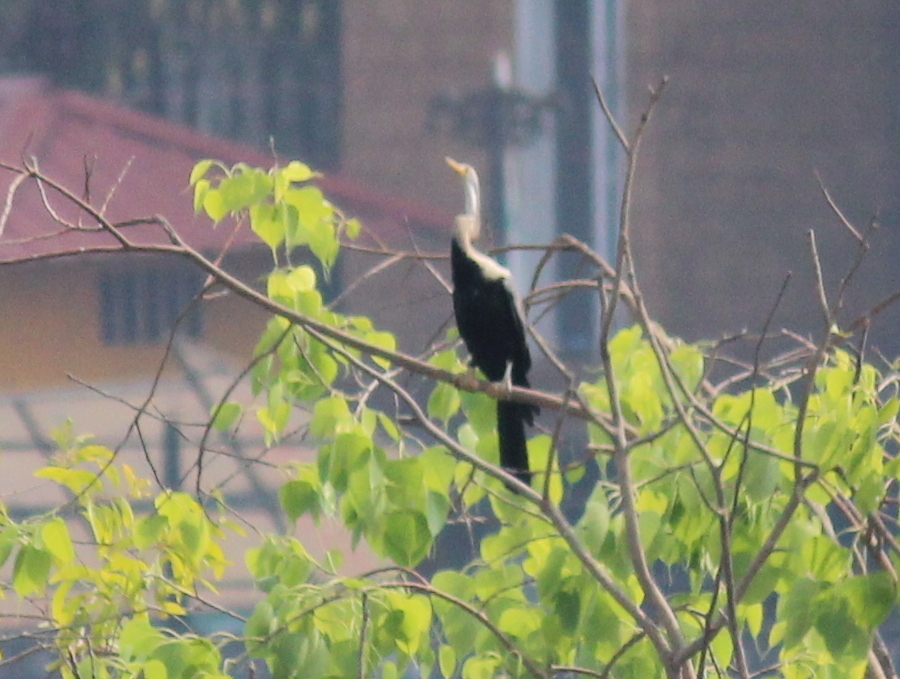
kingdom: Animalia
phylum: Chordata
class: Aves
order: Suliformes
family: Anhingidae
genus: Anhinga
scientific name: Anhinga melanogaster
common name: Oriental darter
